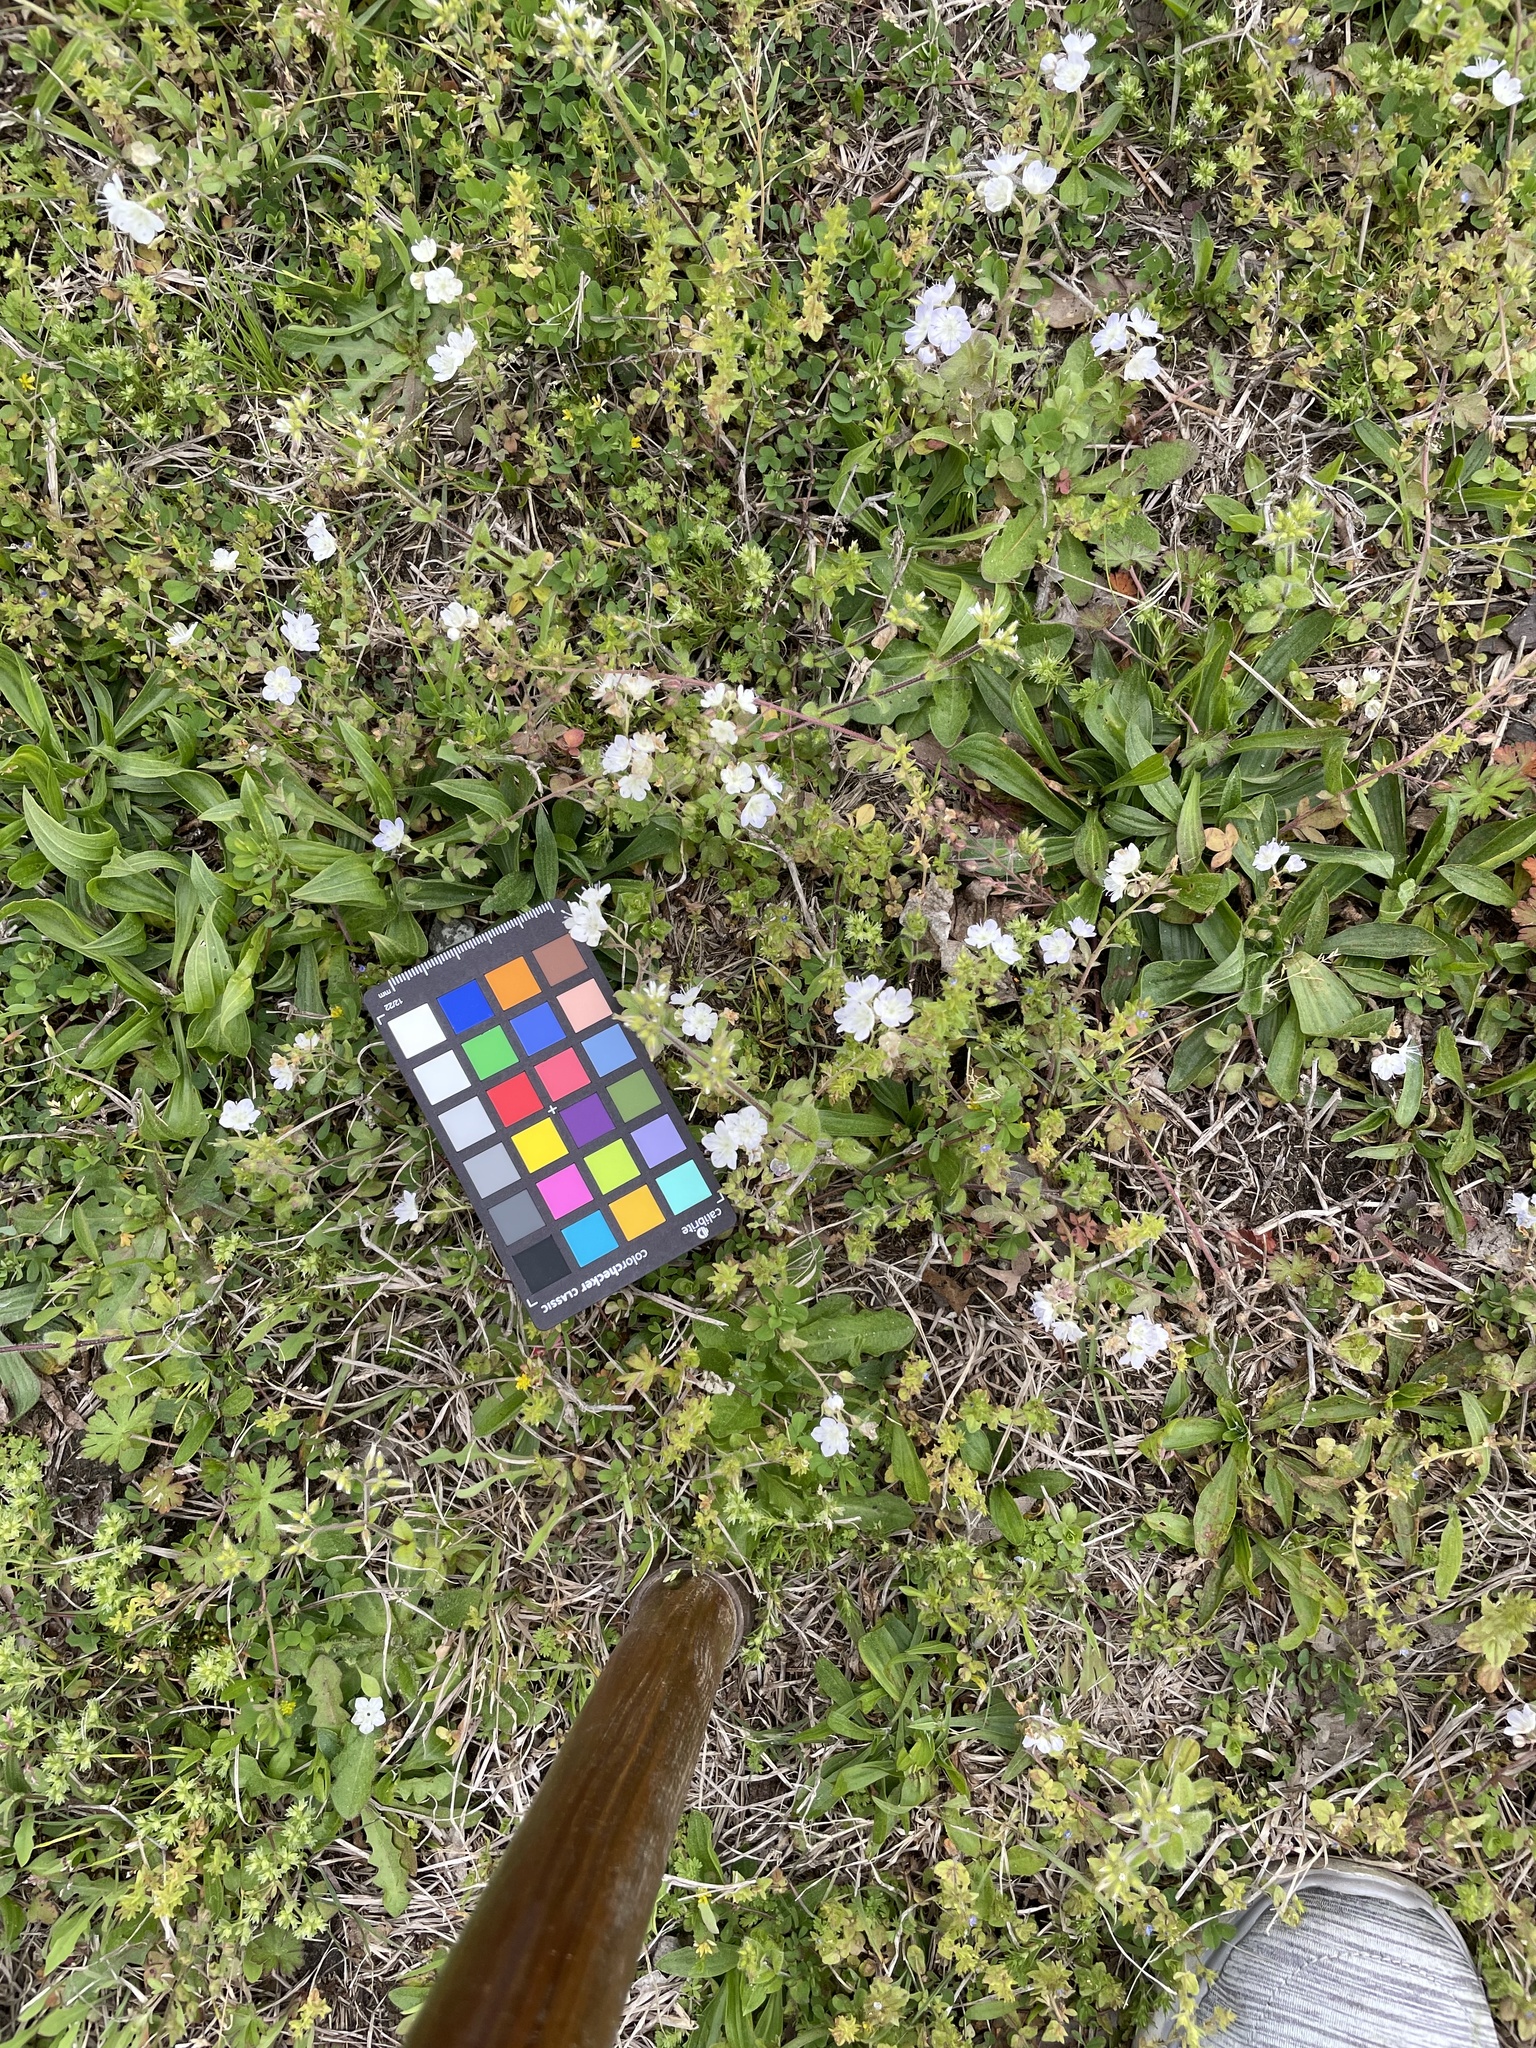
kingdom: Plantae
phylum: Tracheophyta
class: Magnoliopsida
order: Boraginales
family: Hydrophyllaceae
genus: Phacelia
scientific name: Phacelia dubia
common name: Appalachian phacelia
